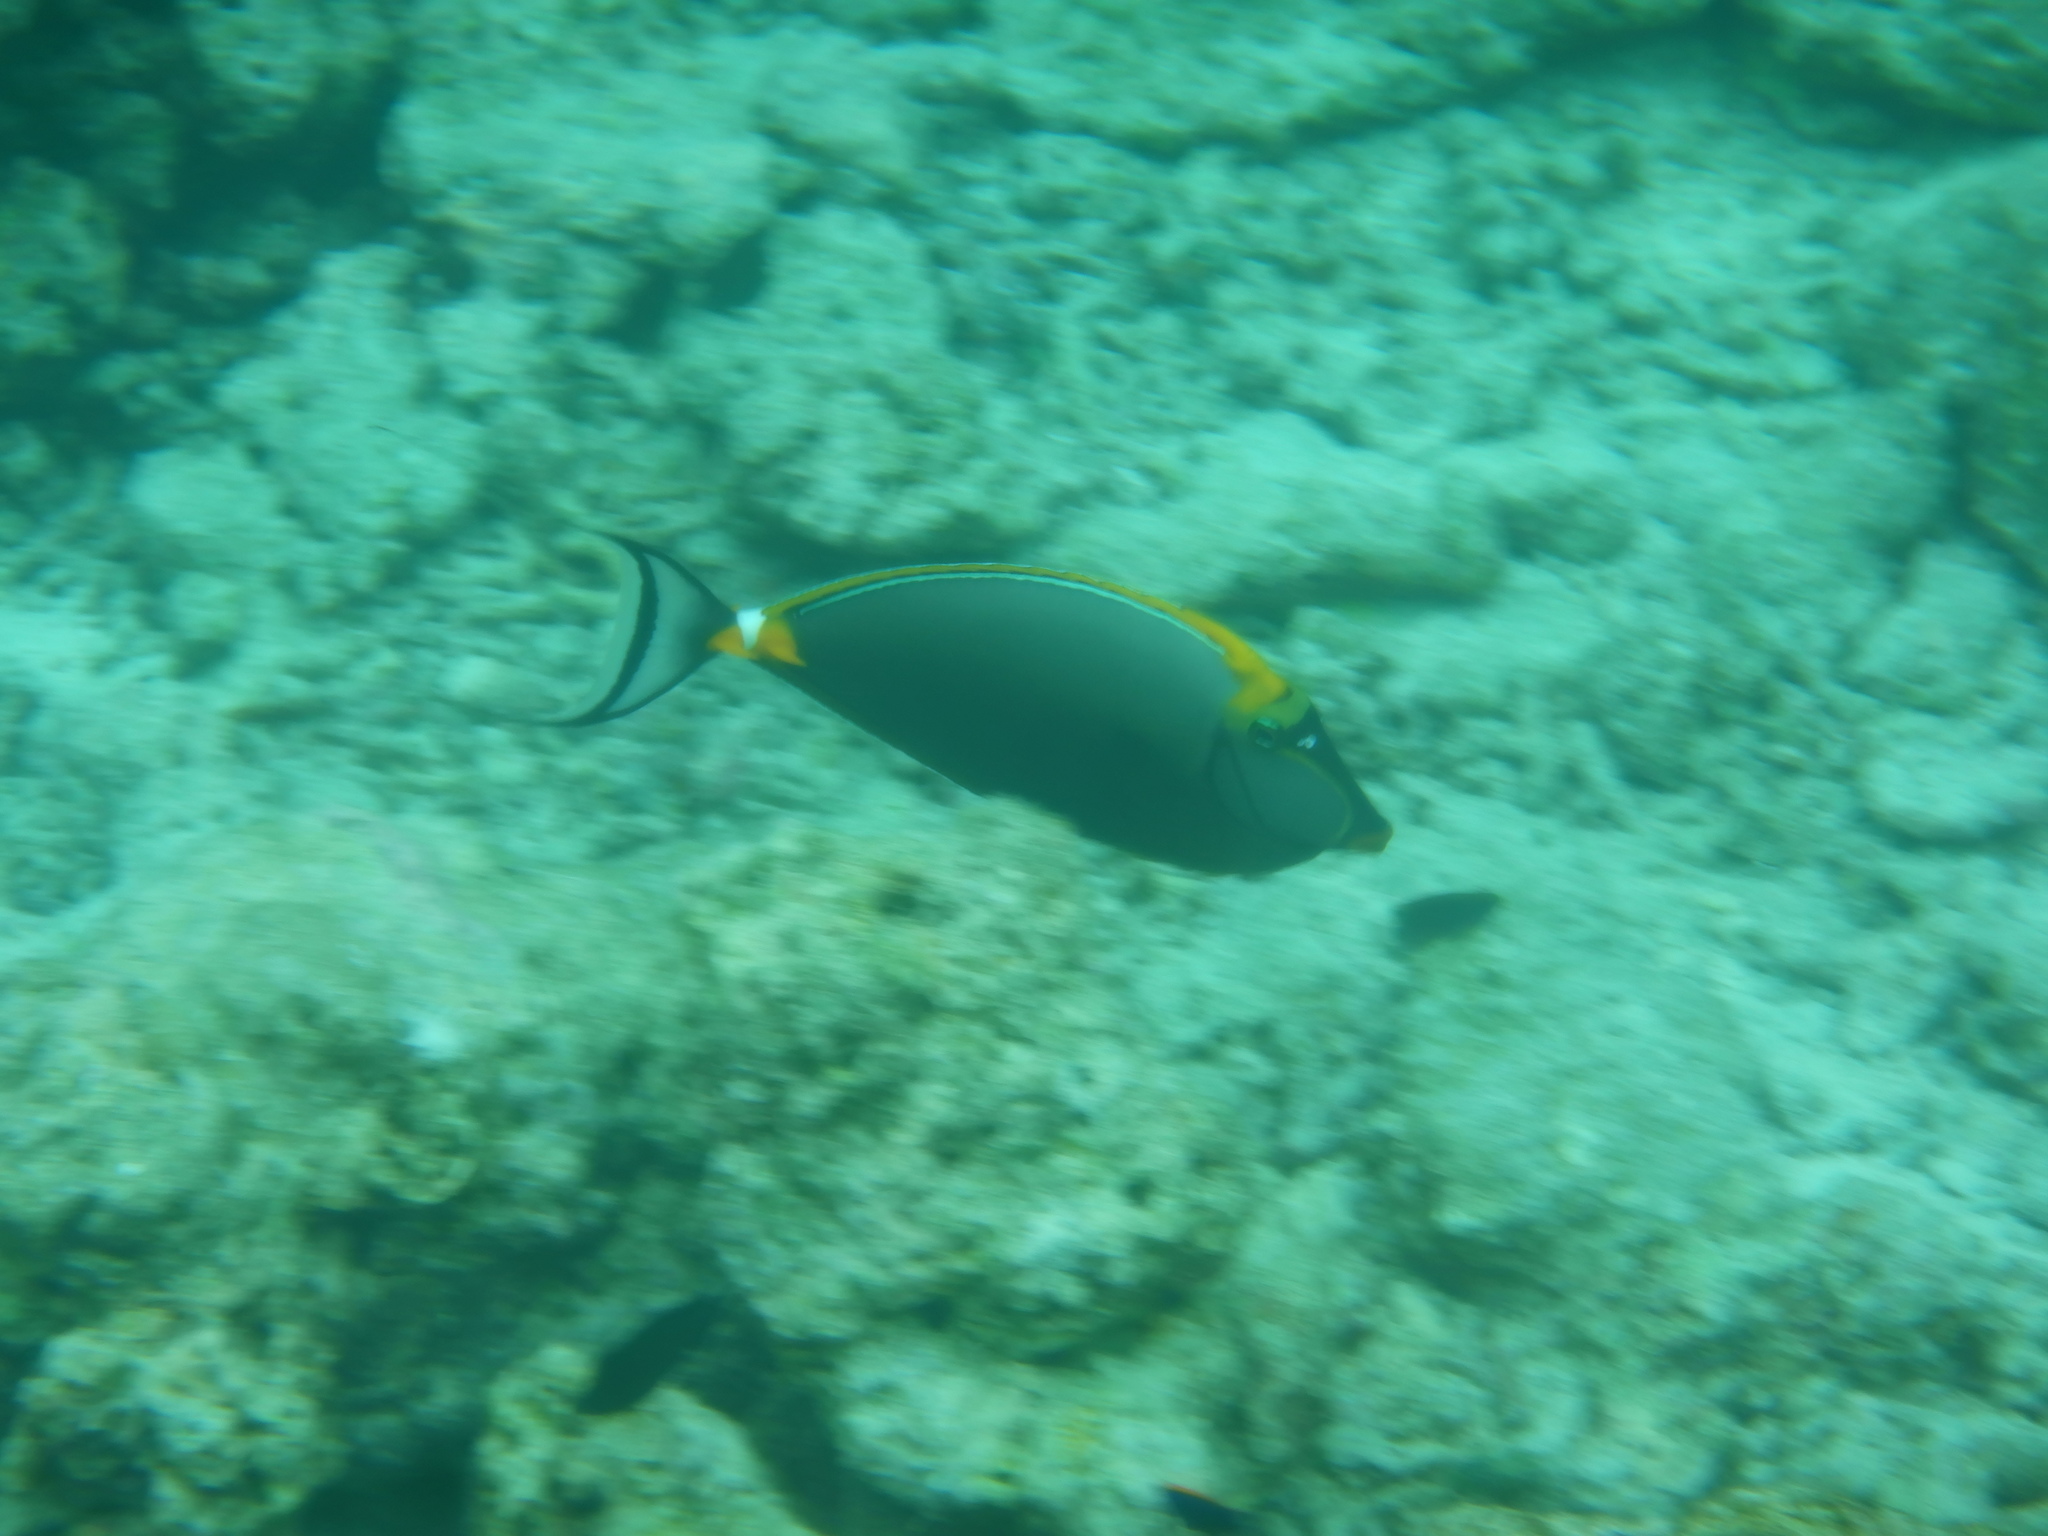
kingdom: Animalia
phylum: Chordata
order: Perciformes
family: Acanthuridae
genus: Naso
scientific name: Naso elegans
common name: Orangespine unicornfish
